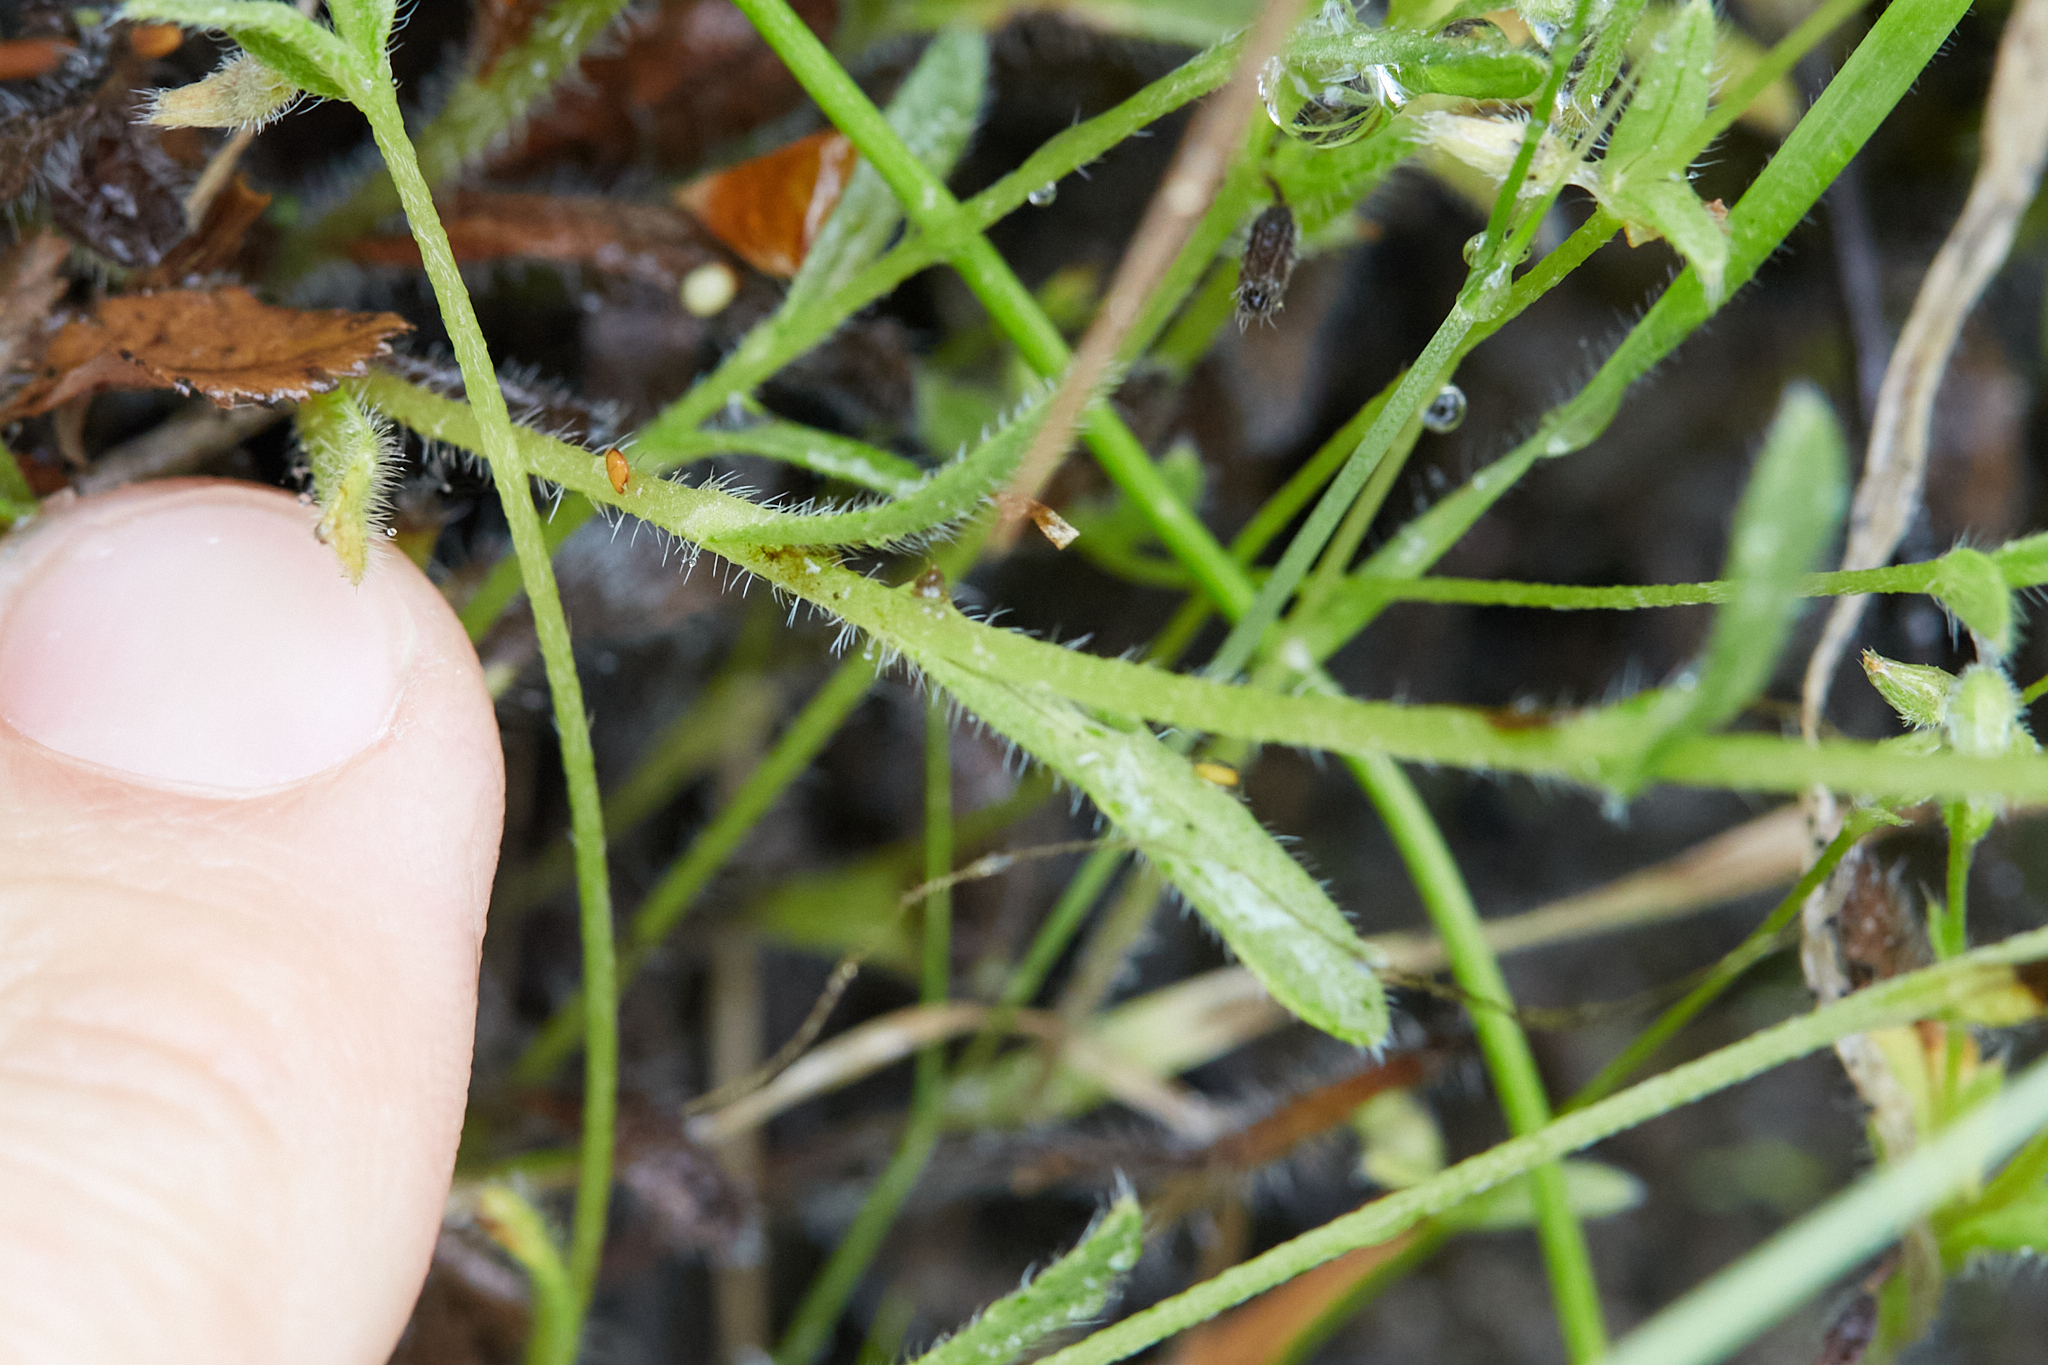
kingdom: Plantae
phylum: Tracheophyta
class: Magnoliopsida
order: Boraginales
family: Boraginaceae
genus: Myosotis
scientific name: Myosotis discolor
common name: Changing forget-me-not
